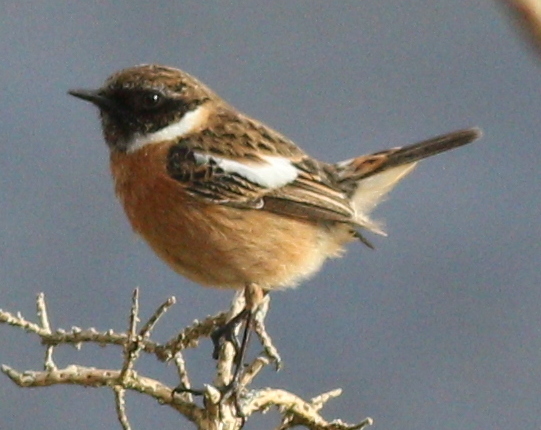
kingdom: Animalia
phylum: Chordata
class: Aves
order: Passeriformes
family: Muscicapidae
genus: Saxicola
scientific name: Saxicola rubicola
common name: European stonechat
